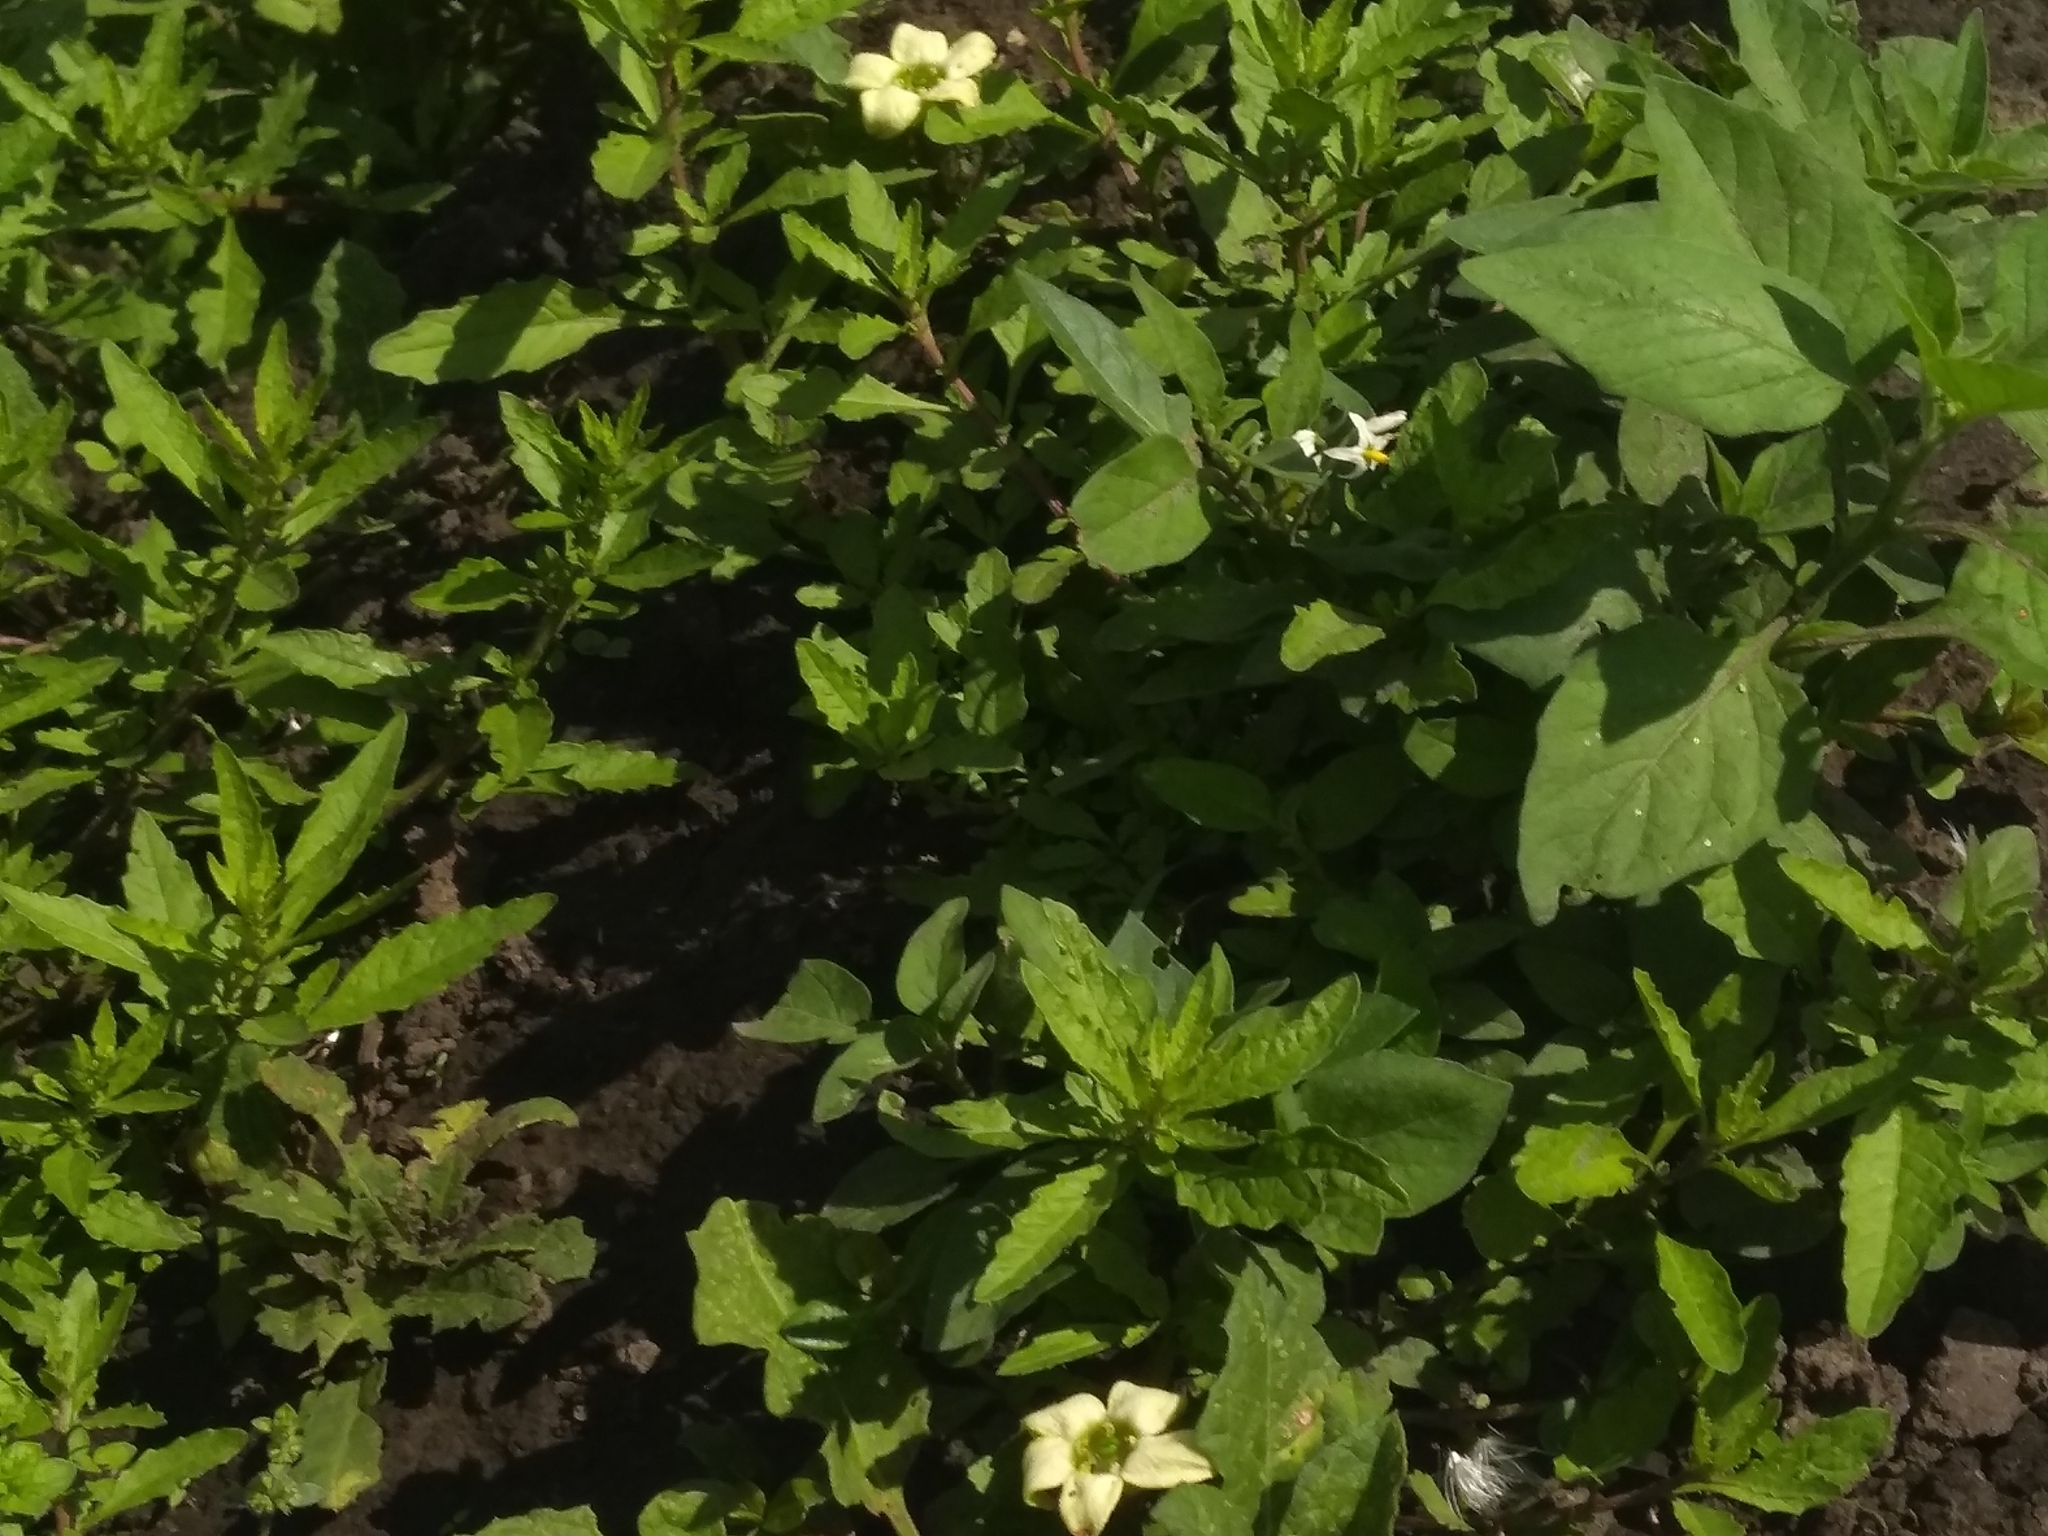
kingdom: Plantae
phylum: Tracheophyta
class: Magnoliopsida
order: Solanales
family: Solanaceae
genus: Jaborosa
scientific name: Jaborosa runcinata
